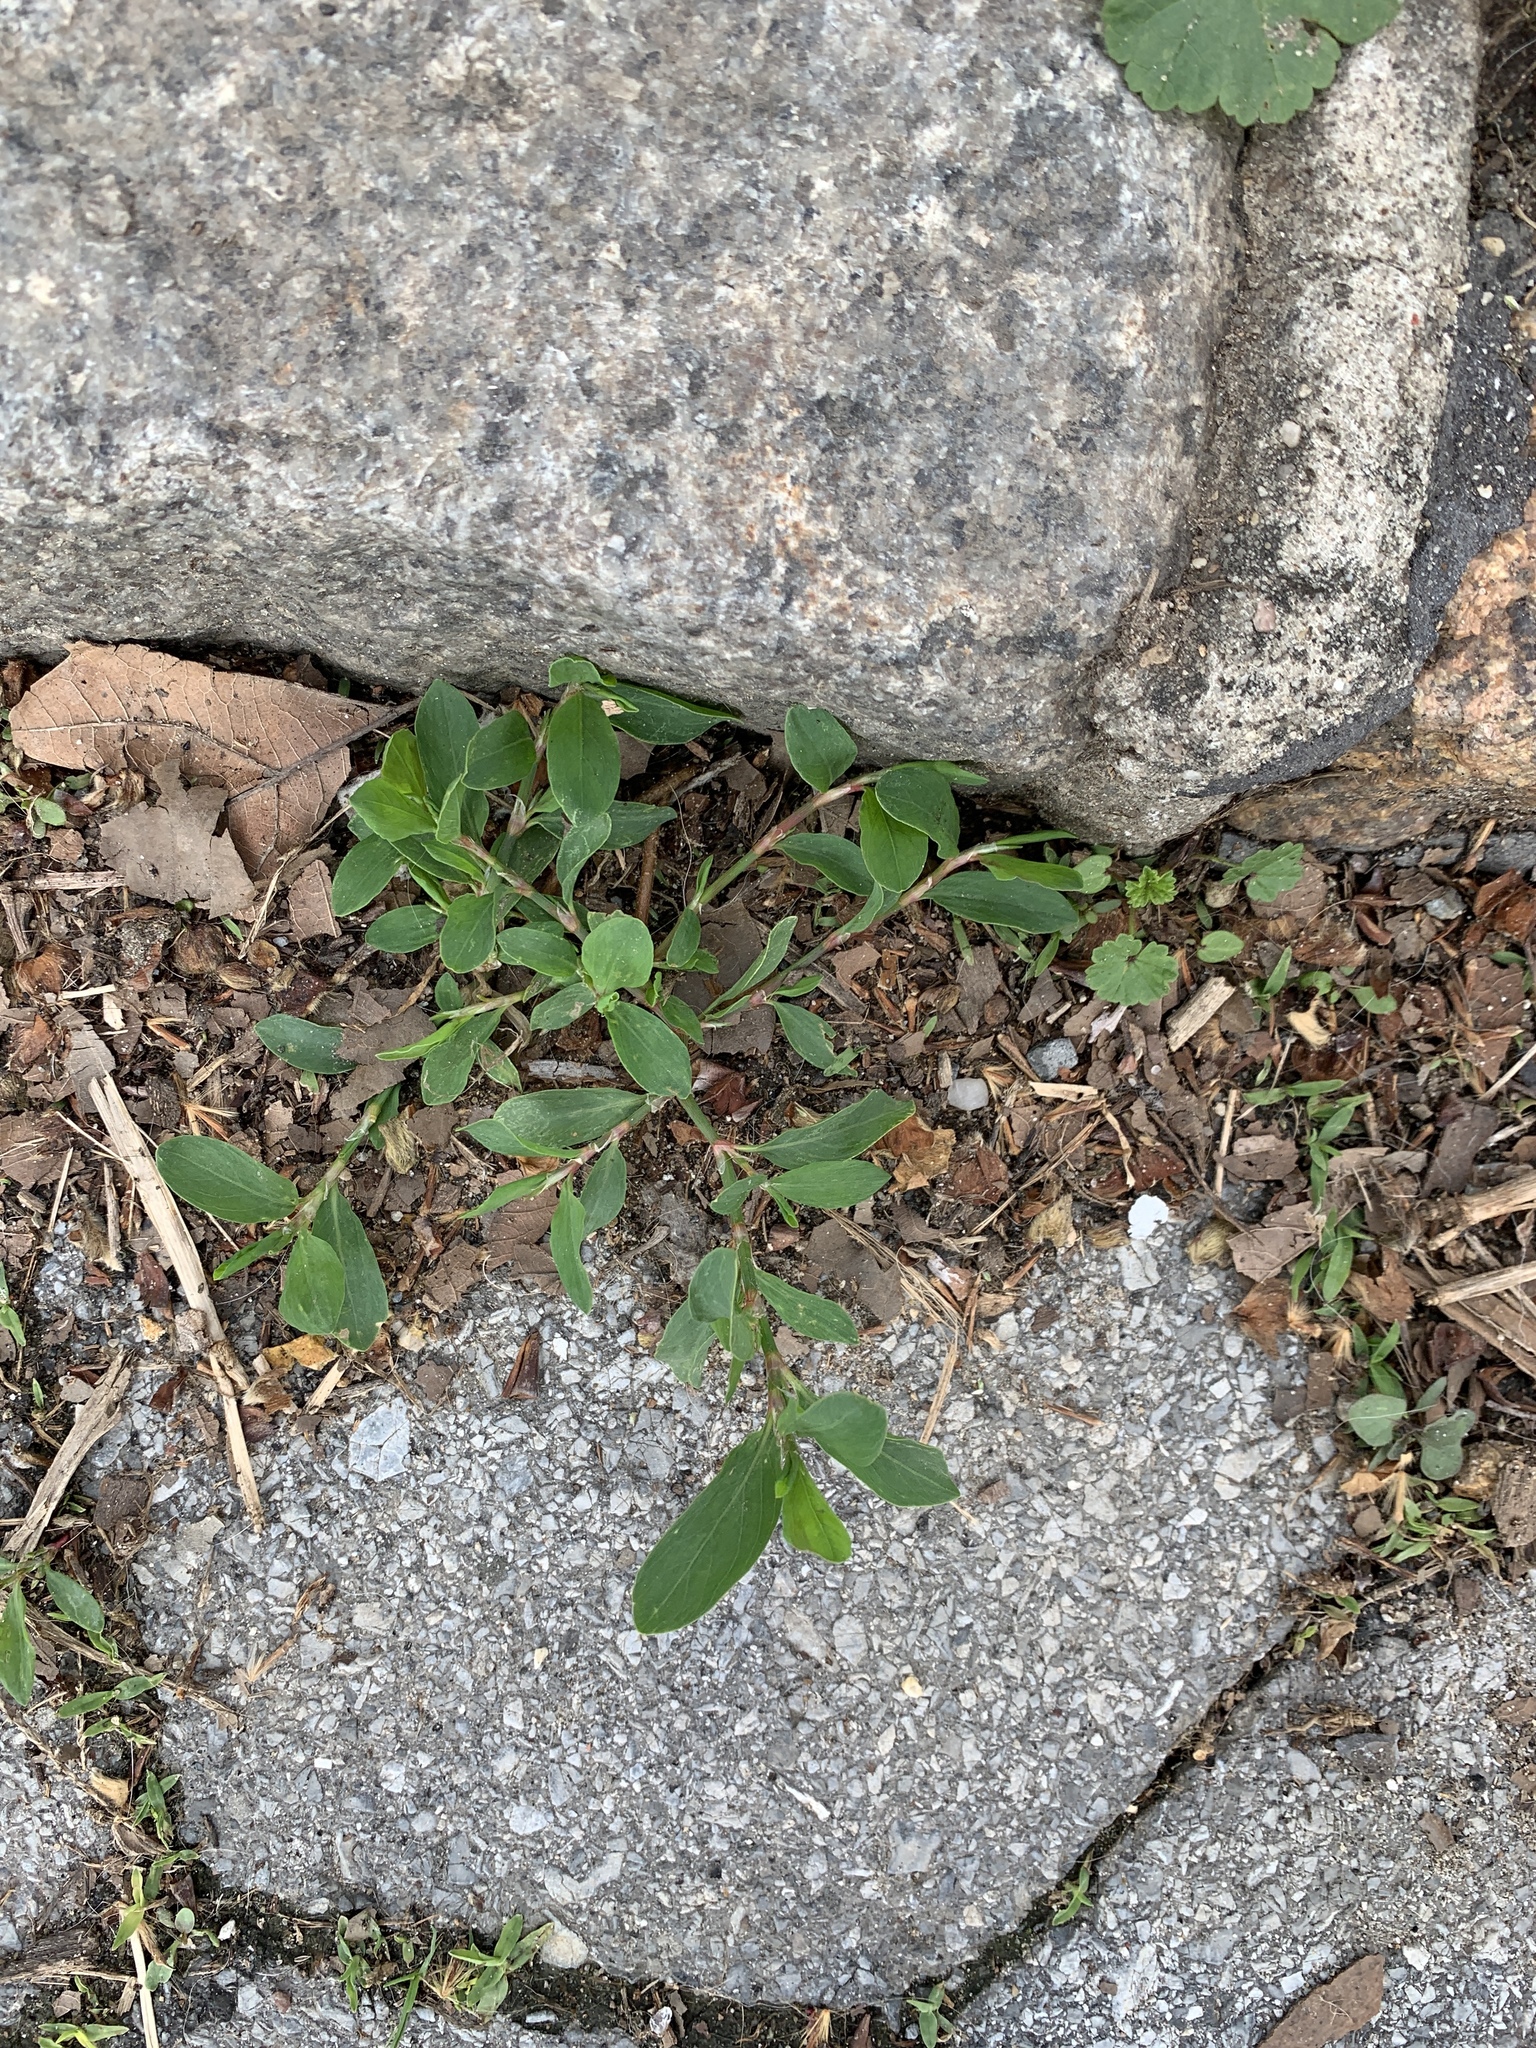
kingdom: Plantae
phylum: Tracheophyta
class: Magnoliopsida
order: Caryophyllales
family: Polygonaceae
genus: Polygonum
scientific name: Polygonum aviculare
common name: Prostrate knotweed
